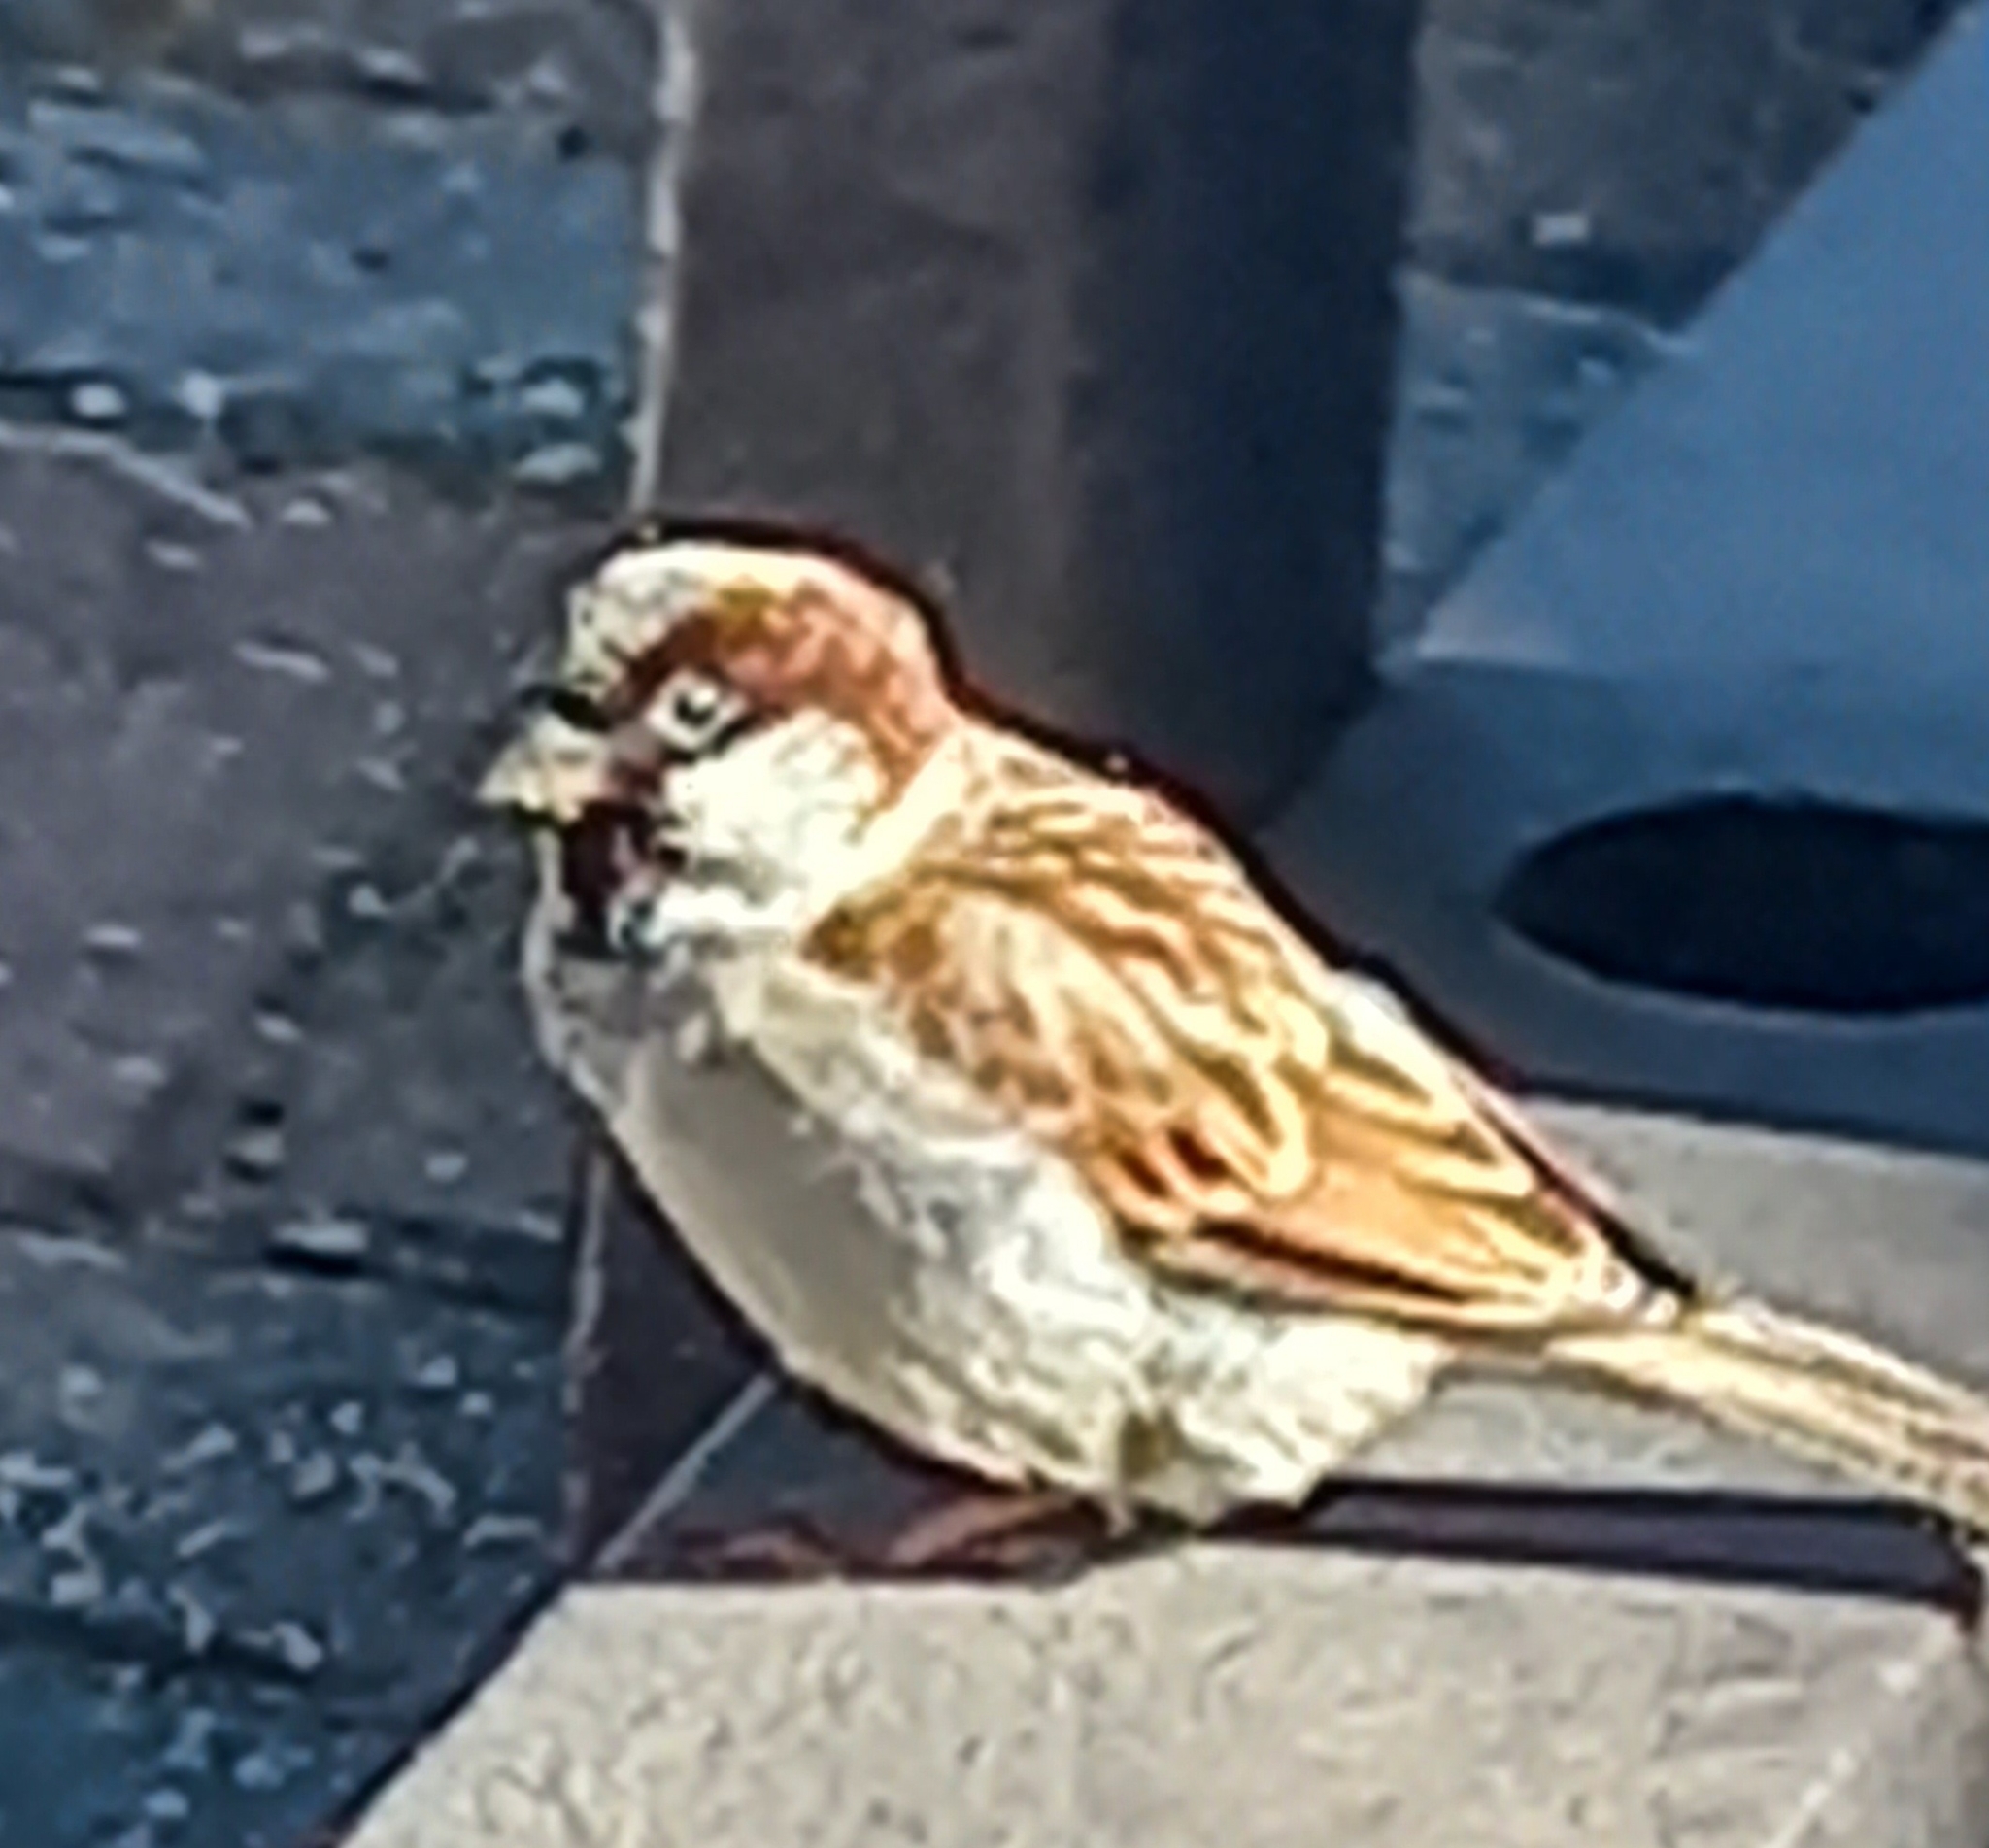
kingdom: Animalia
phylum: Chordata
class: Aves
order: Passeriformes
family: Passeridae
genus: Passer
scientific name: Passer domesticus
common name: House sparrow
